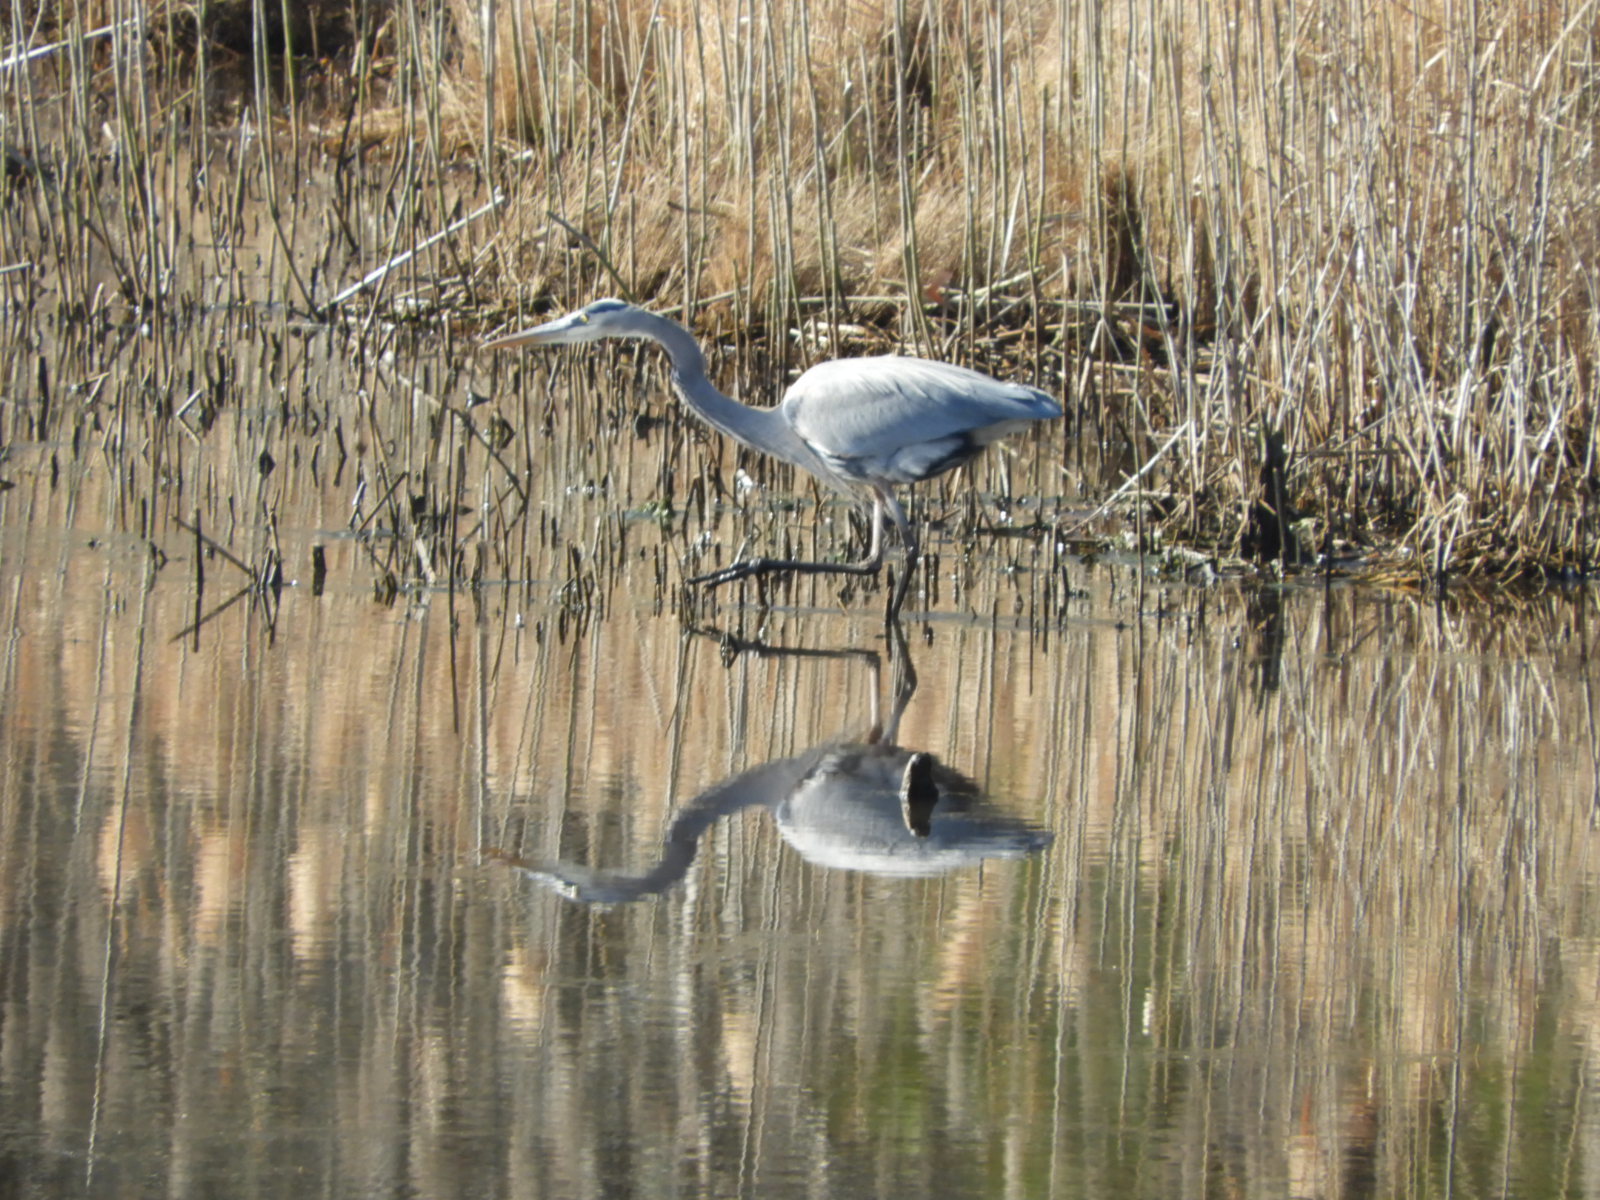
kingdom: Animalia
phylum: Chordata
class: Aves
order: Pelecaniformes
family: Ardeidae
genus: Ardea
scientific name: Ardea herodias
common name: Great blue heron
